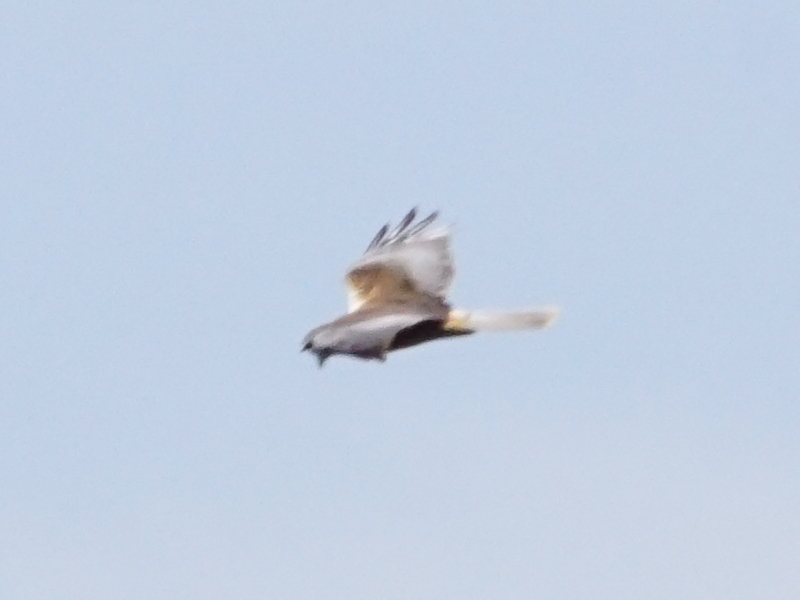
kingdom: Animalia
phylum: Chordata
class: Aves
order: Accipitriformes
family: Accipitridae
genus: Circus
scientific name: Circus aeruginosus
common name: Western marsh harrier
